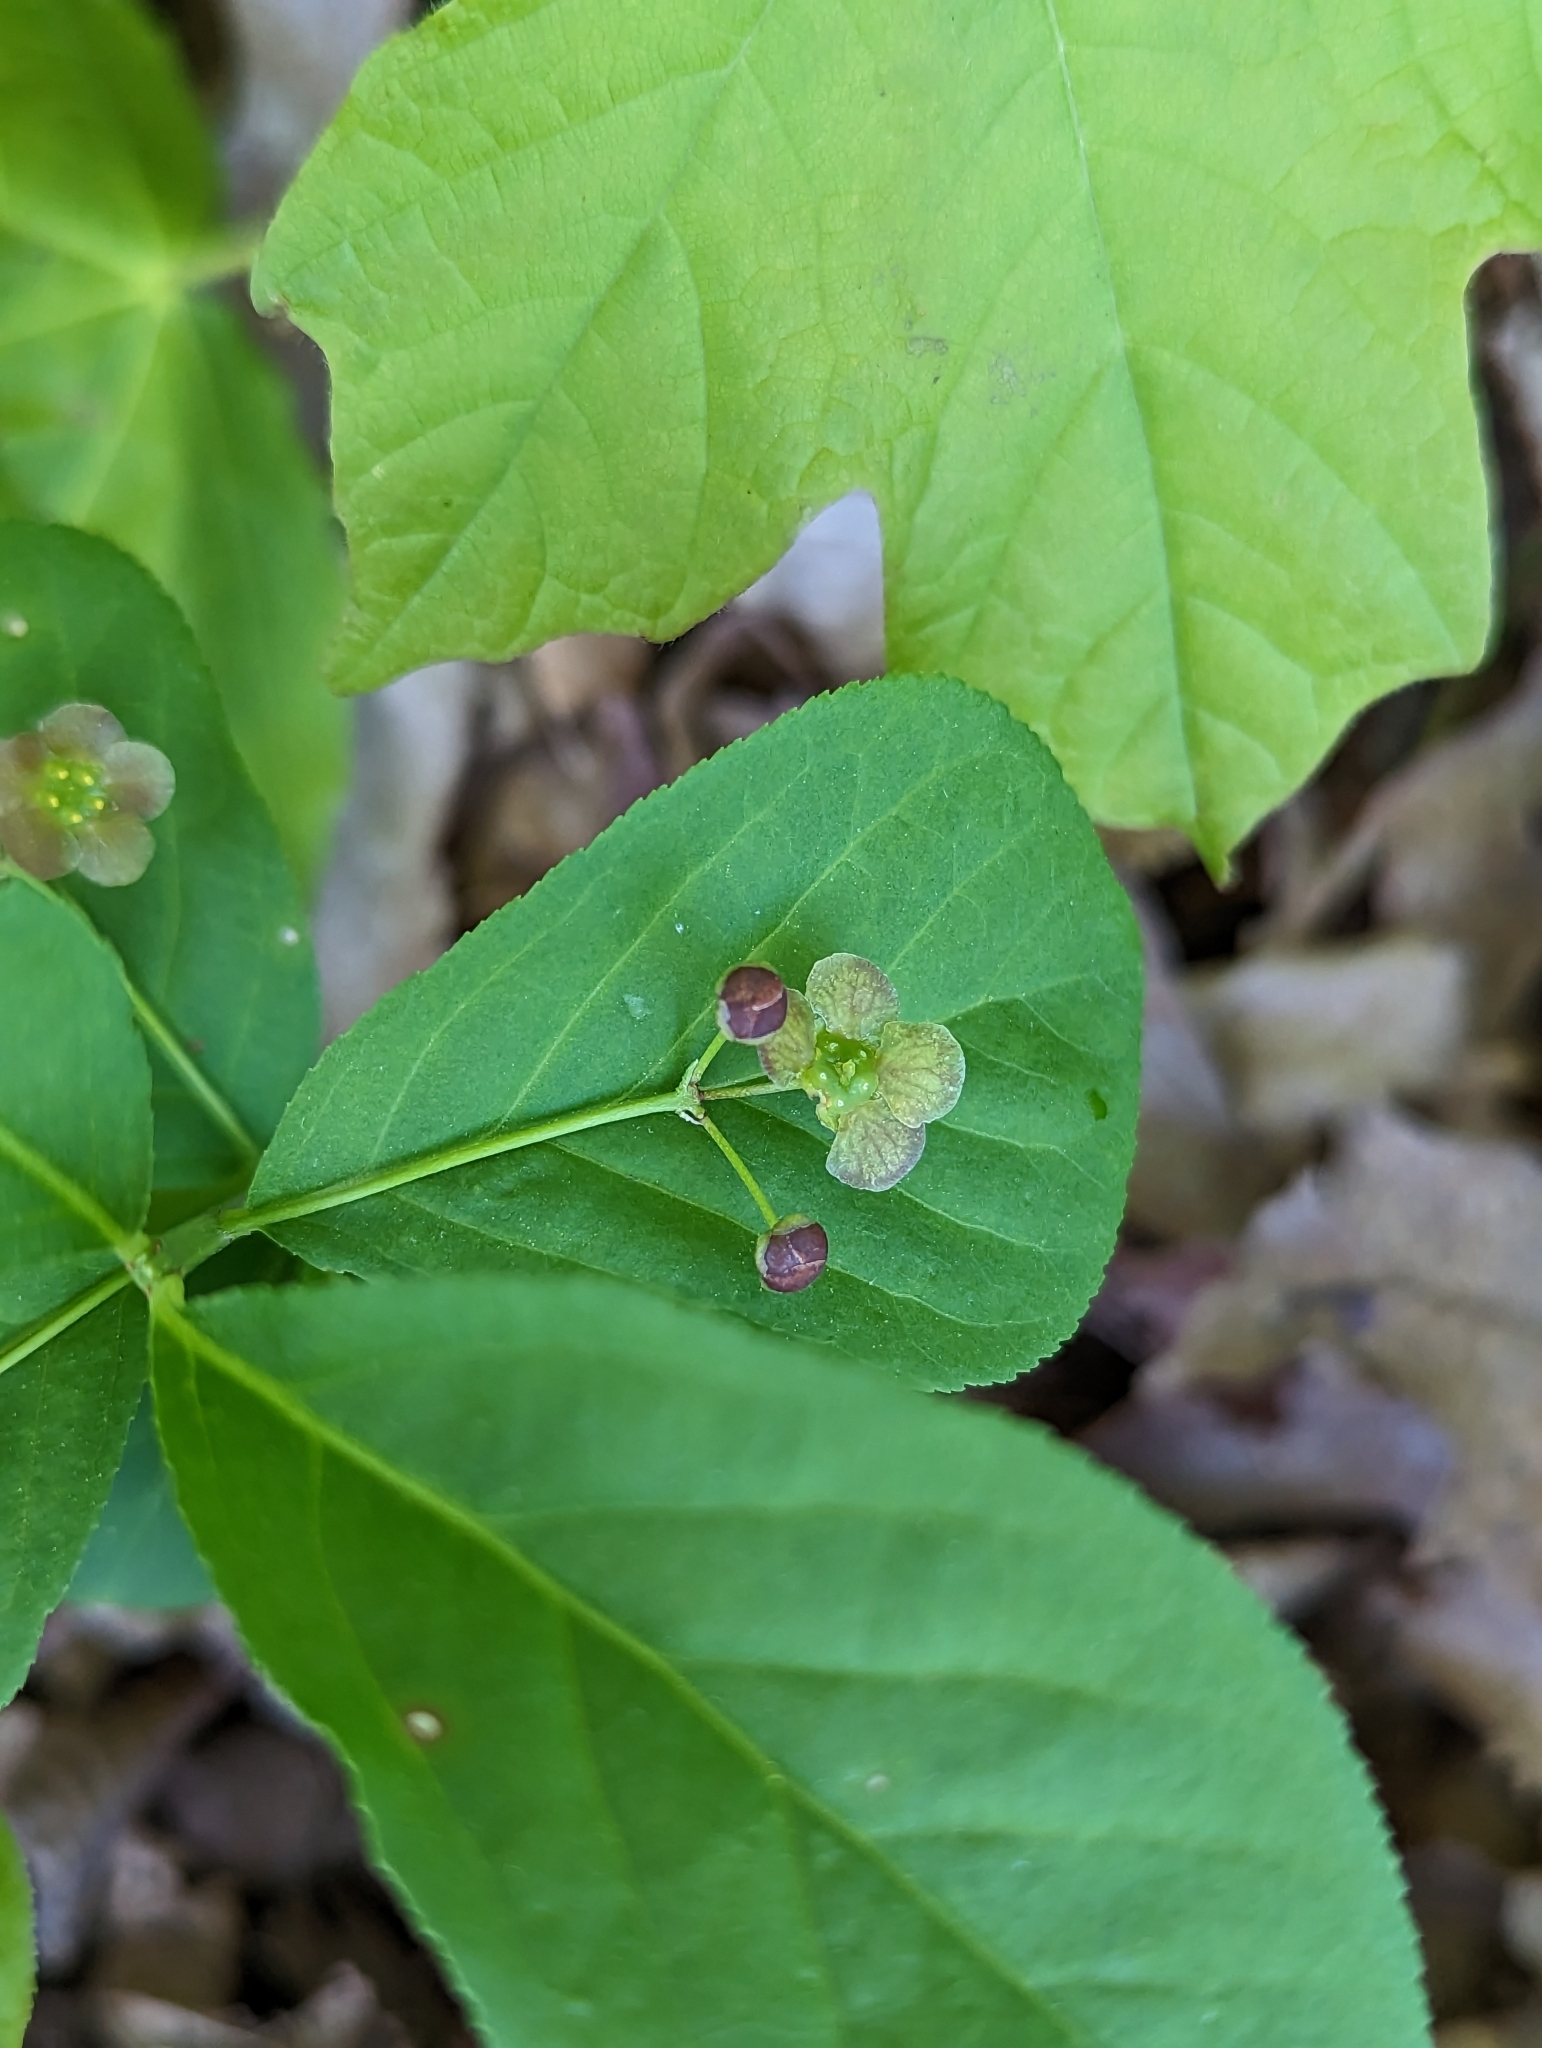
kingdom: Plantae
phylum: Tracheophyta
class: Magnoliopsida
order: Celastrales
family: Celastraceae
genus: Euonymus
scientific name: Euonymus obovatus
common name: Running strawberry-bush
